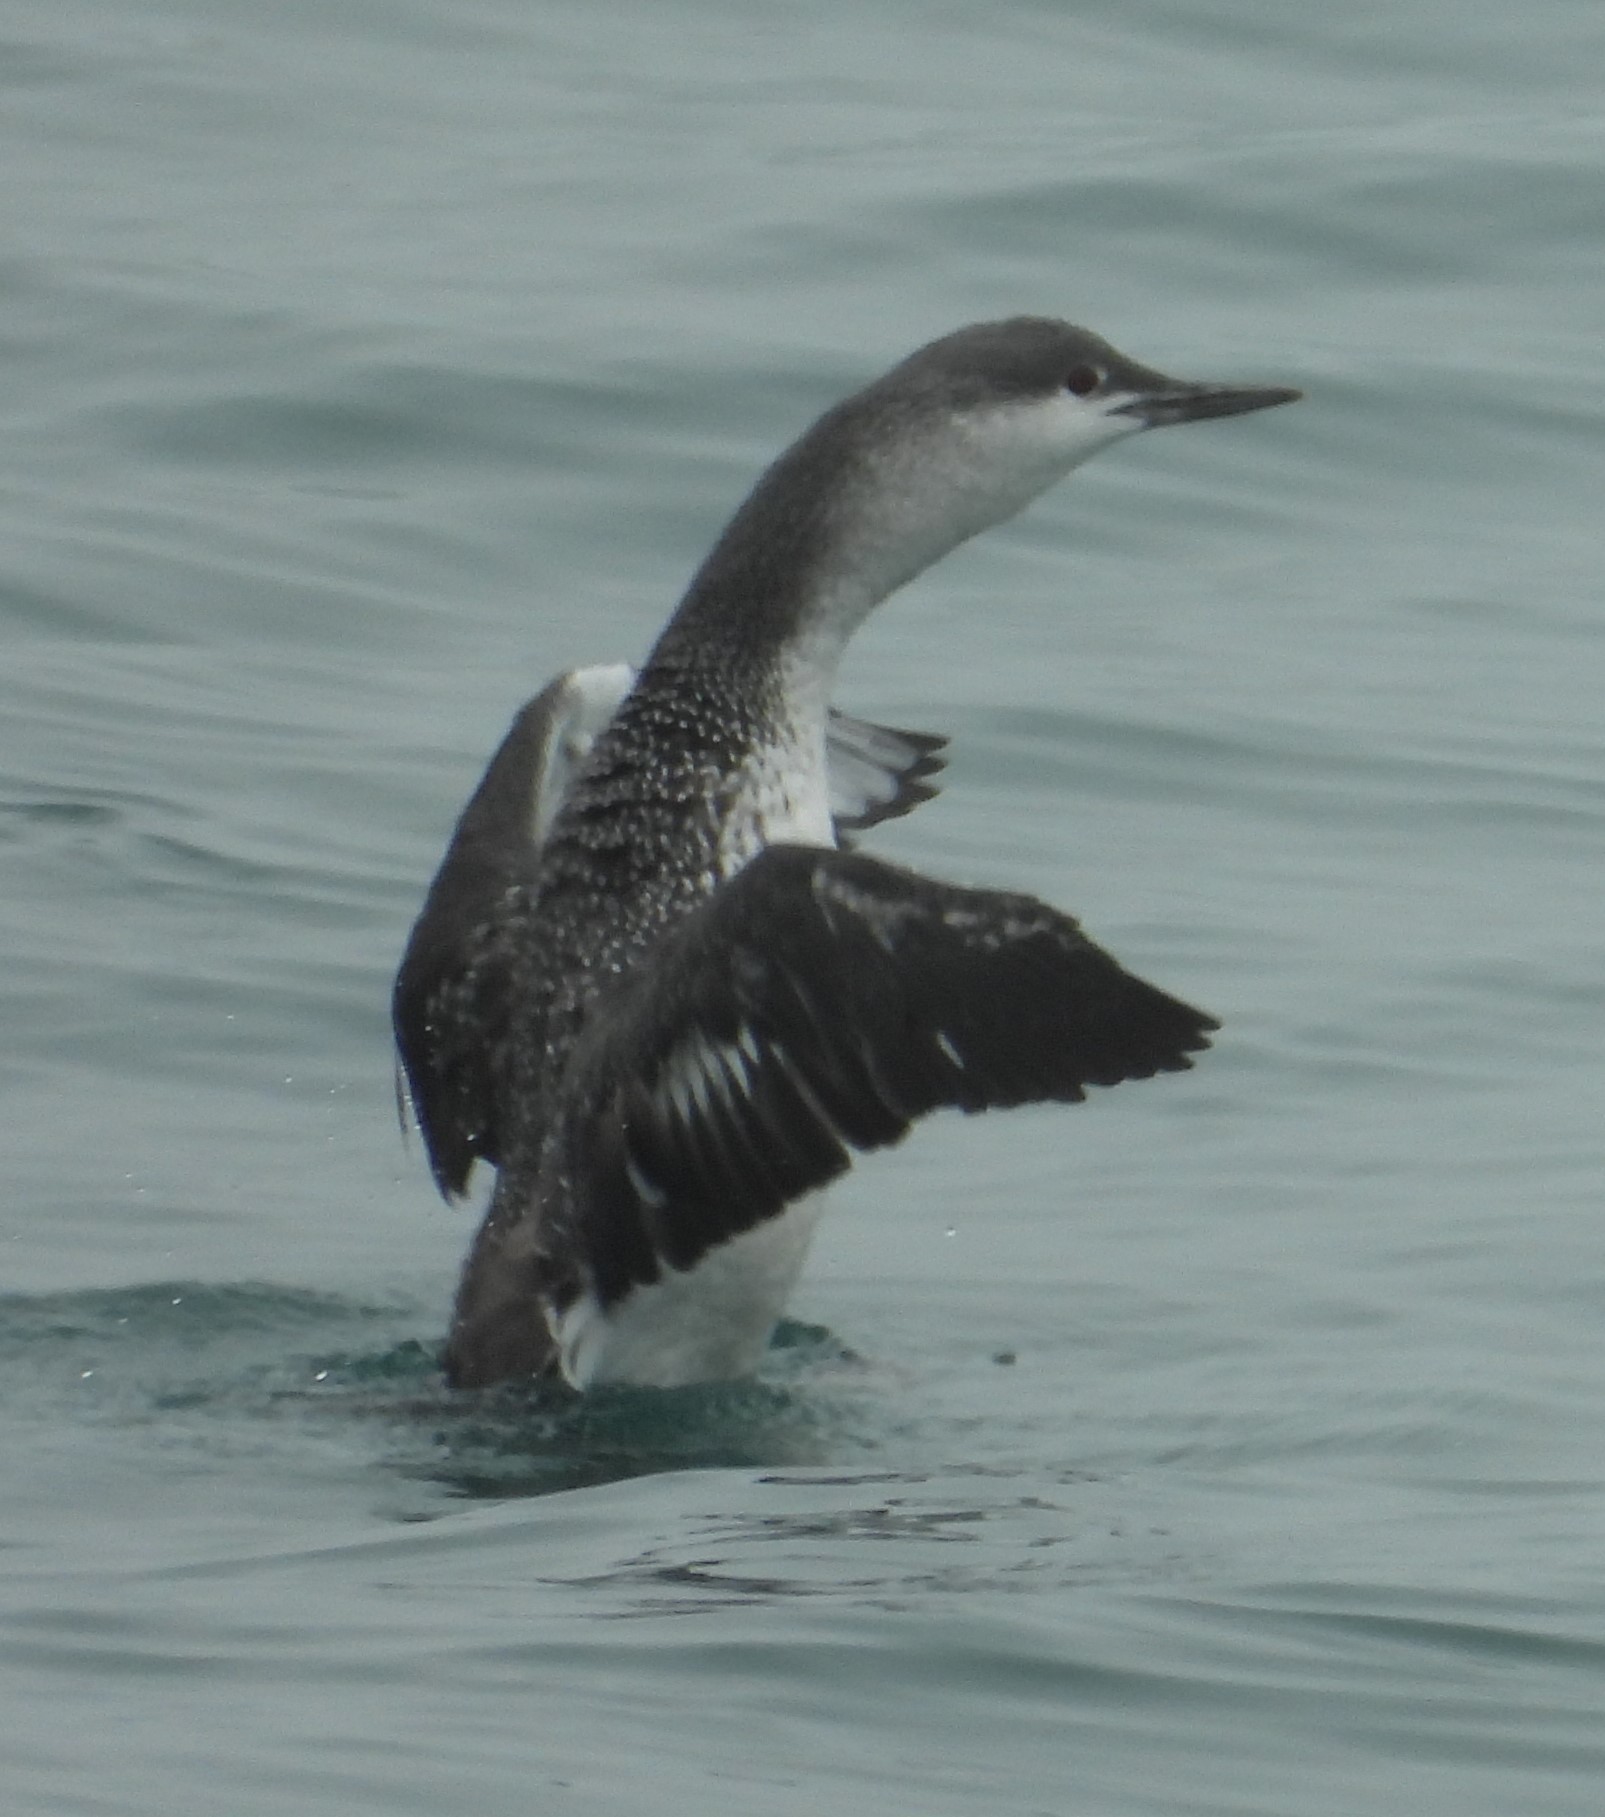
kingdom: Animalia
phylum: Chordata
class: Aves
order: Gaviiformes
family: Gaviidae
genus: Gavia
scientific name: Gavia stellata
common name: Red-throated loon
